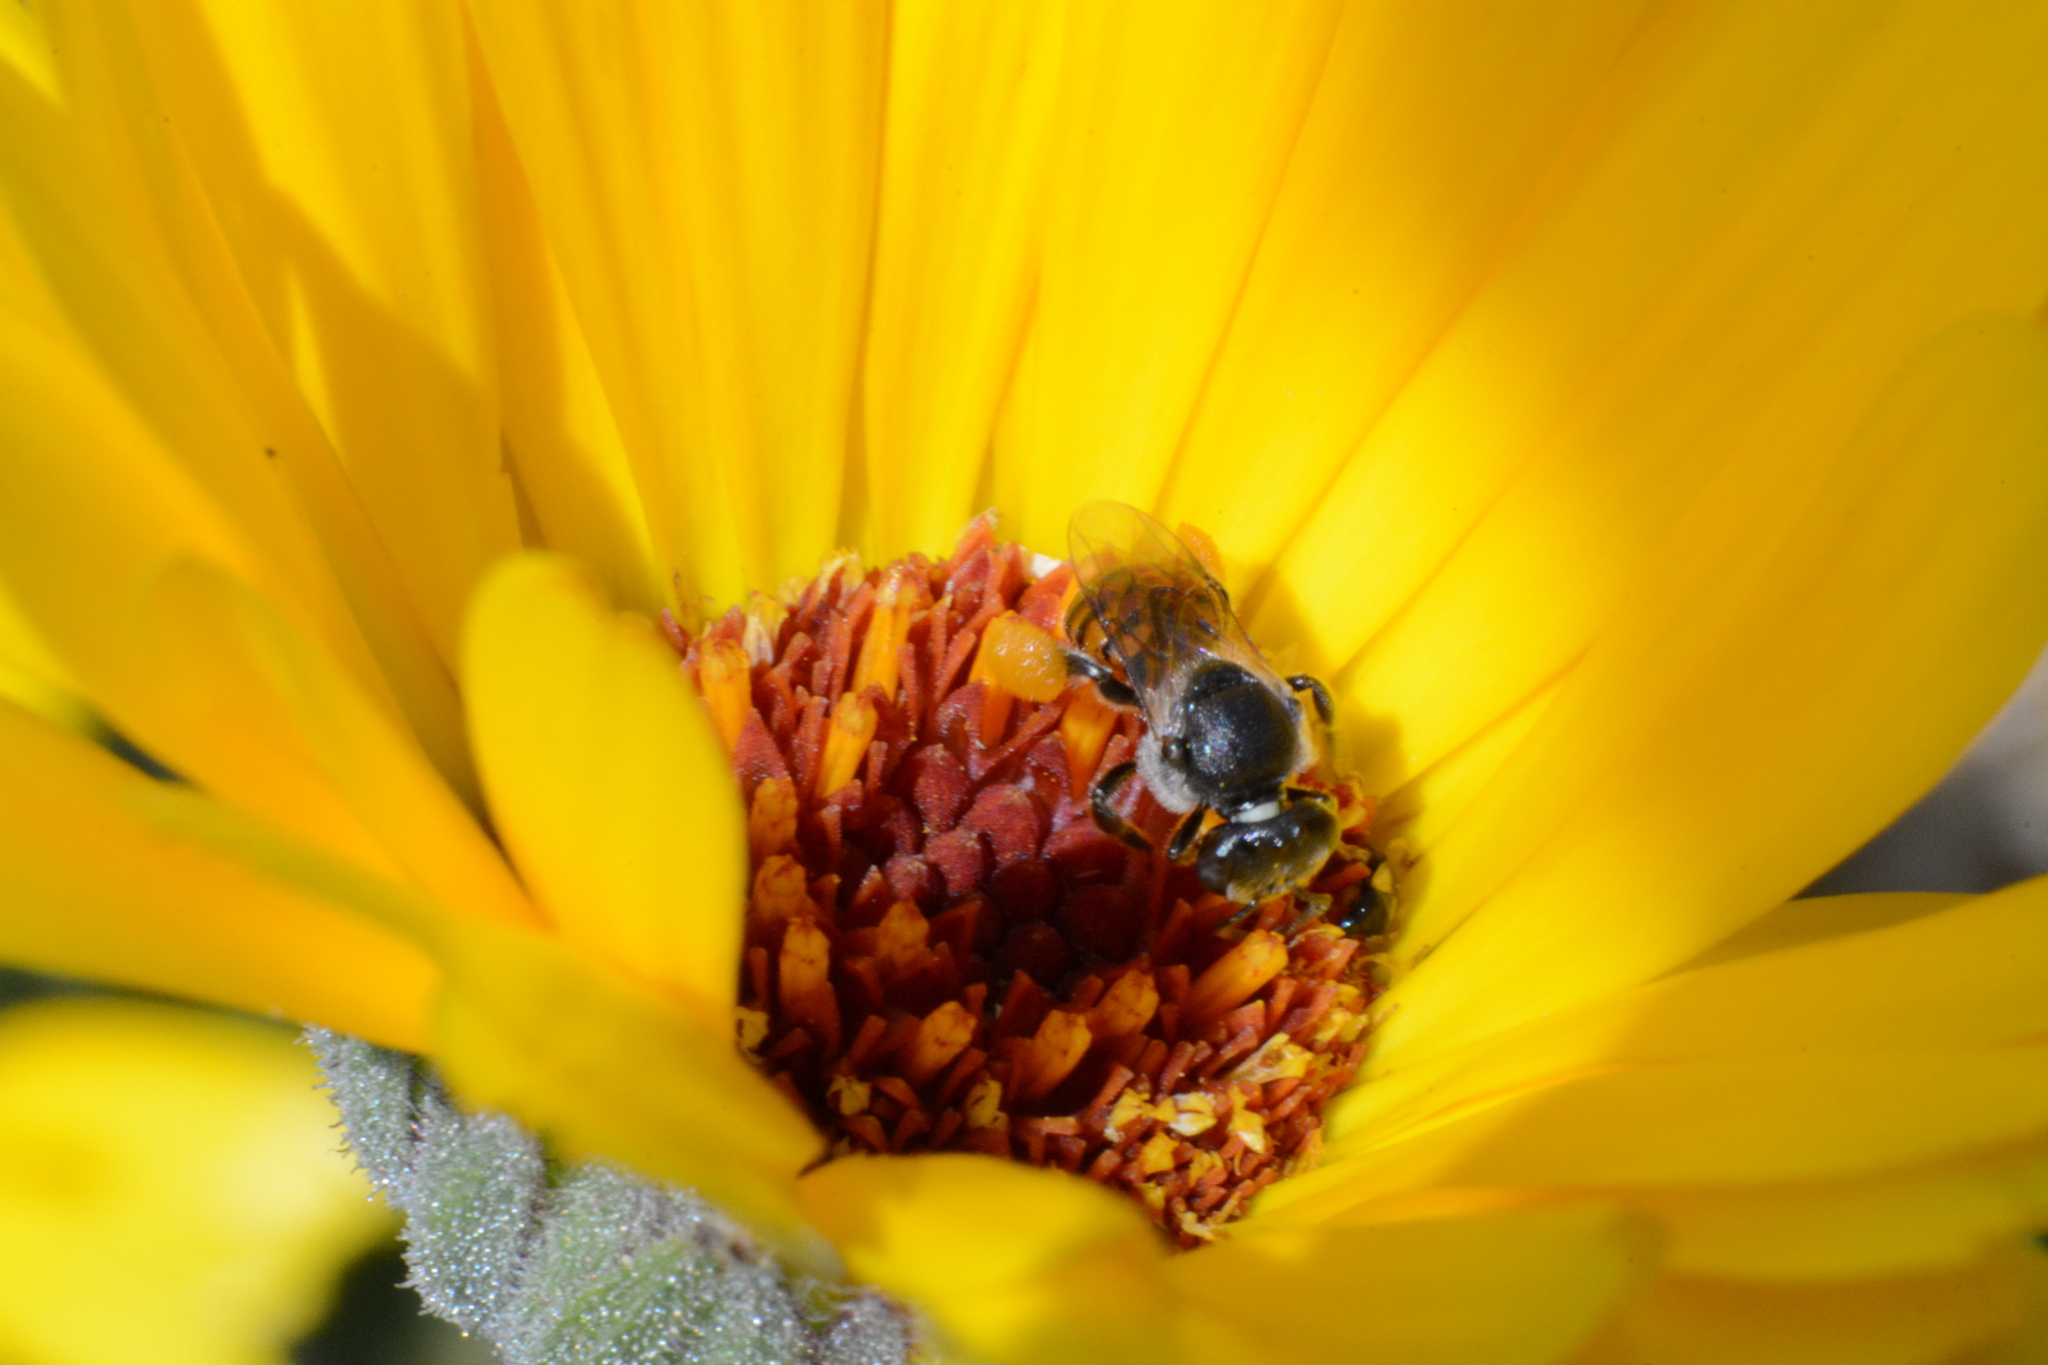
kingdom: Animalia
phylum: Arthropoda
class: Insecta
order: Hymenoptera
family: Apidae
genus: Plebeina
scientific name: Plebeina armata
